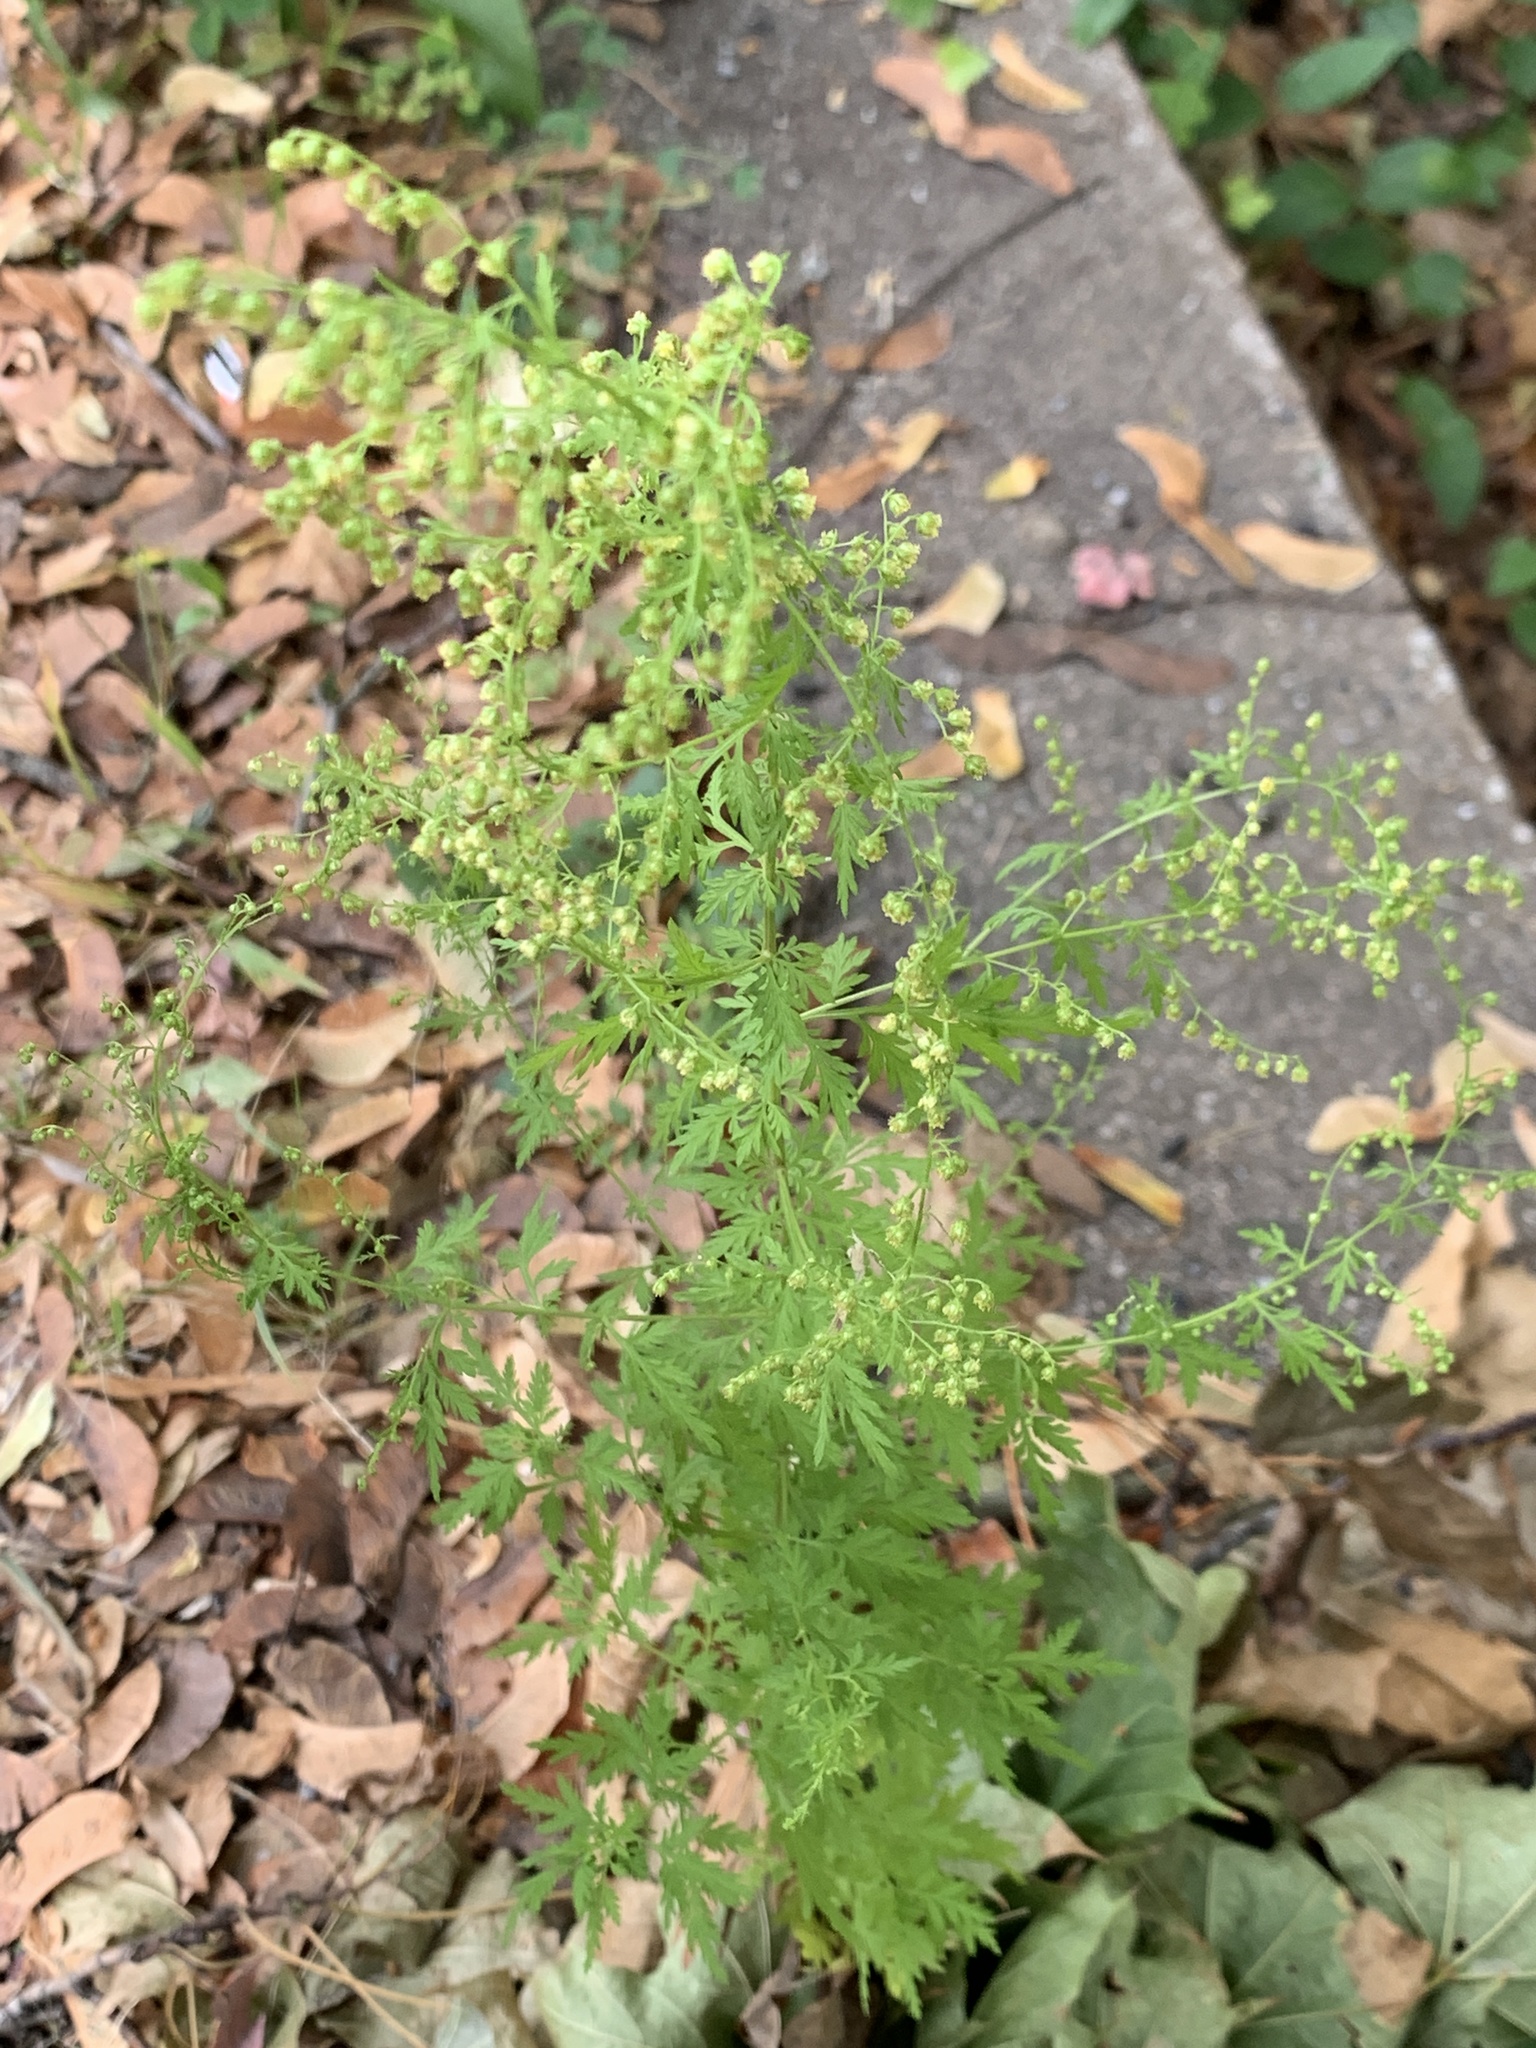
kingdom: Plantae
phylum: Tracheophyta
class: Magnoliopsida
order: Asterales
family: Asteraceae
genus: Artemisia
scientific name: Artemisia annua
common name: Sweet sagewort
